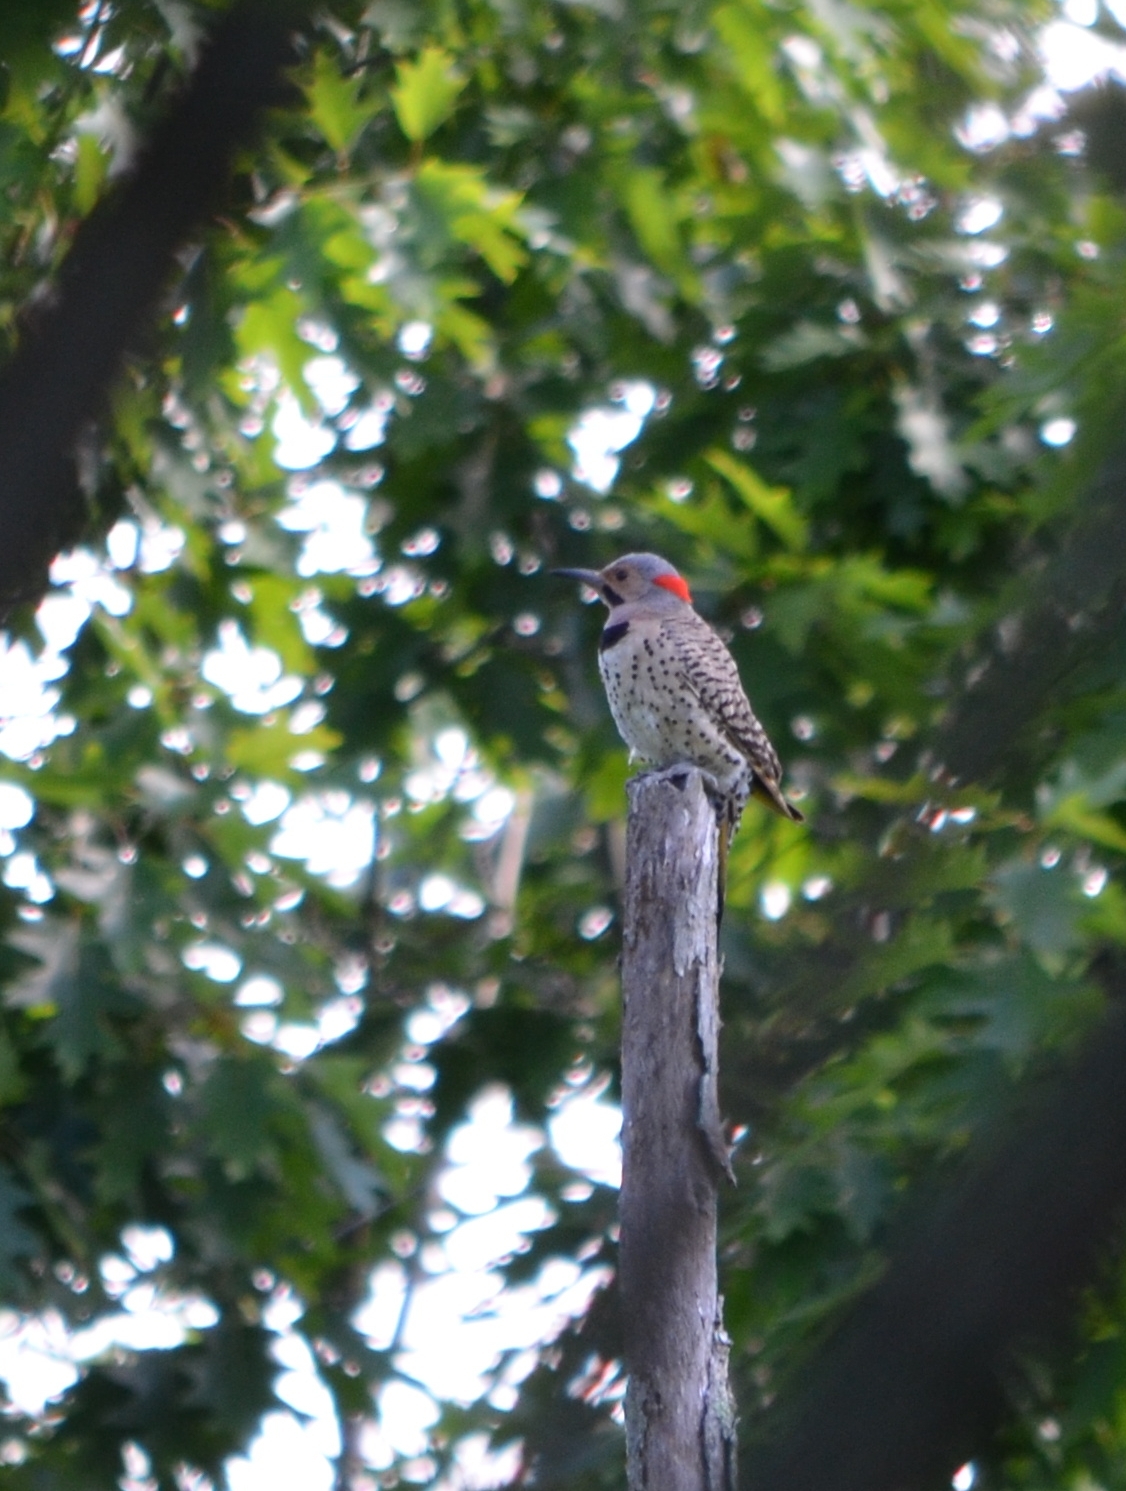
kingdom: Animalia
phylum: Chordata
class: Aves
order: Piciformes
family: Picidae
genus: Colaptes
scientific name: Colaptes auratus
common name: Northern flicker
